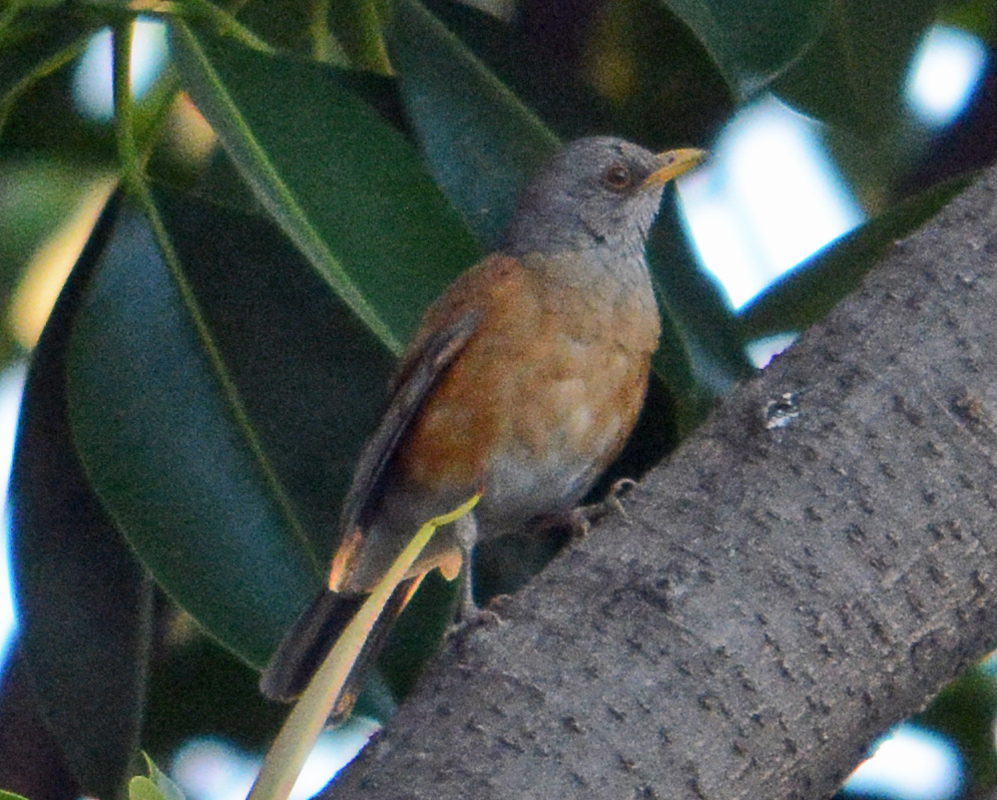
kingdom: Animalia
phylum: Chordata
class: Aves
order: Passeriformes
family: Turdidae
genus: Turdus
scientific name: Turdus rufopalliatus
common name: Rufous-backed robin
